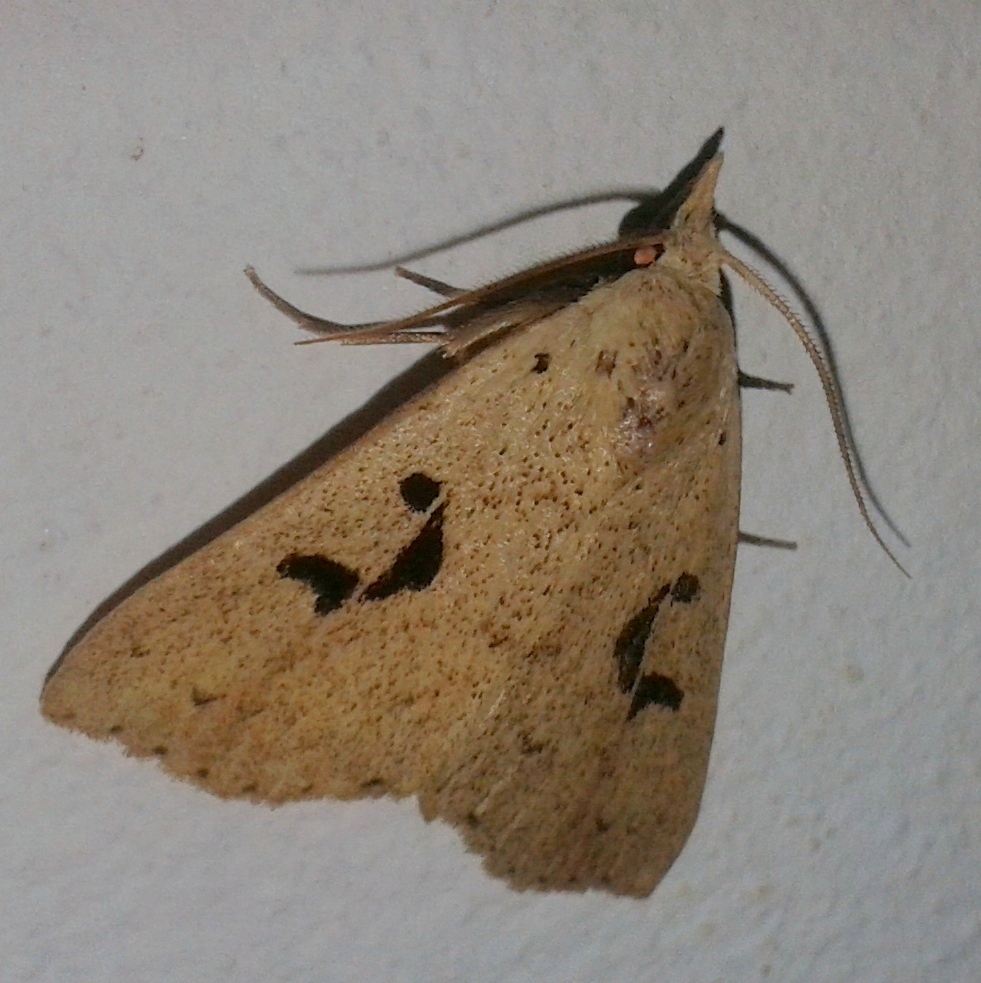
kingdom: Animalia
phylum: Arthropoda
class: Insecta
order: Lepidoptera
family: Erebidae
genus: Scolecocampa
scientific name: Scolecocampa Rhosologia tripuncta
